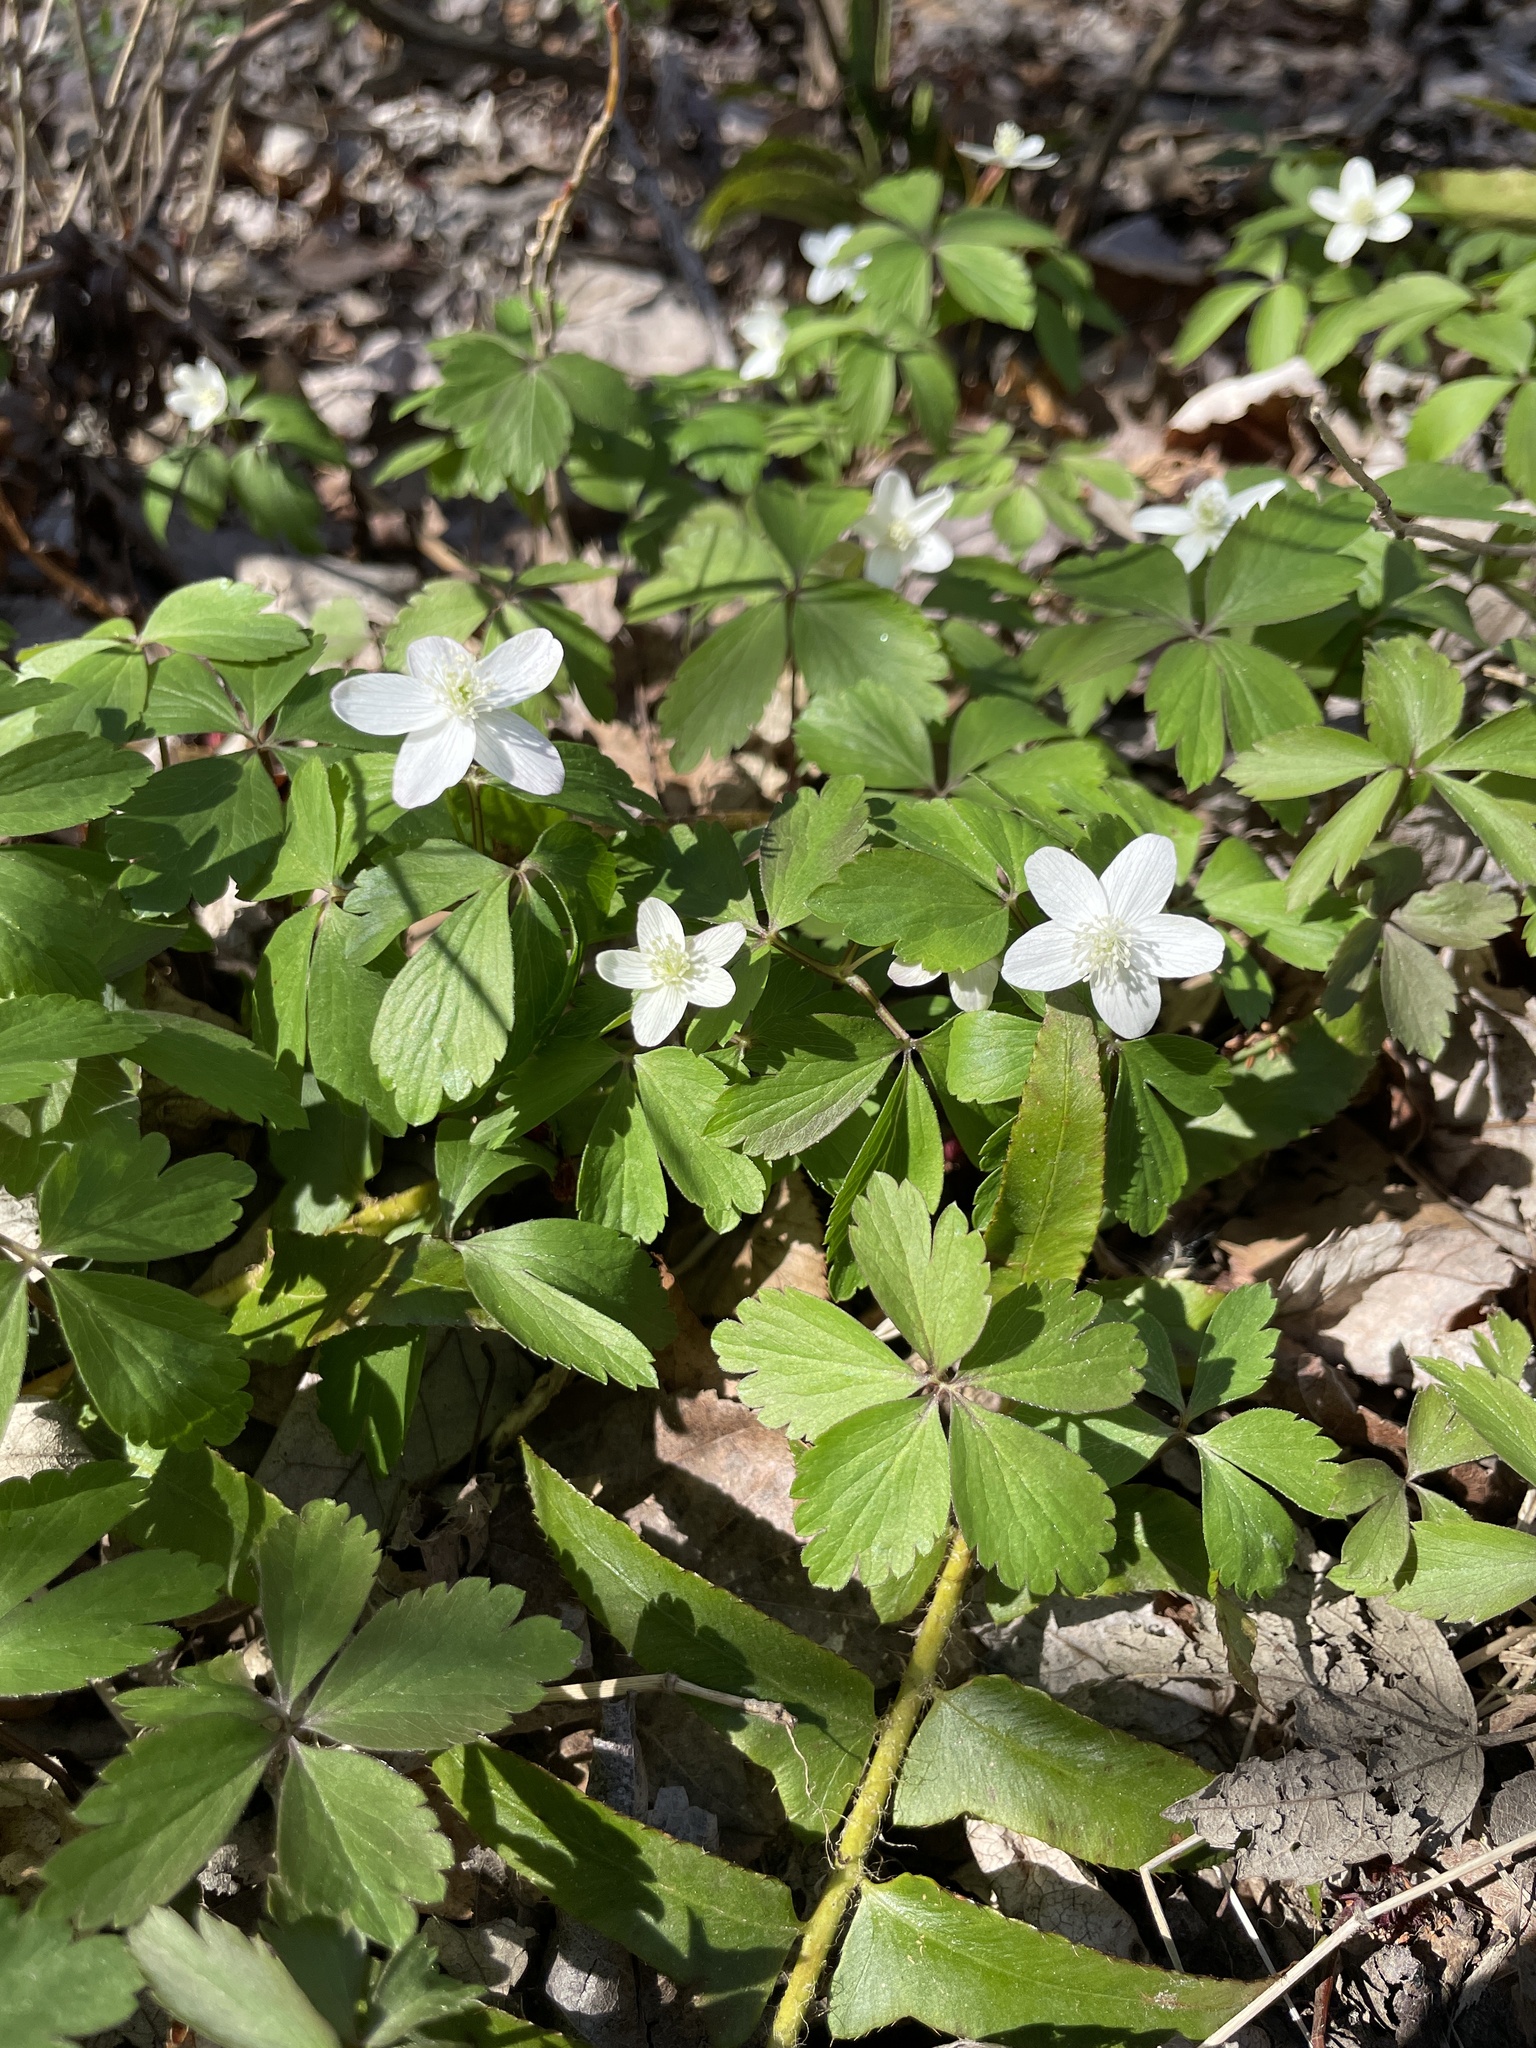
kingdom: Plantae
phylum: Tracheophyta
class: Magnoliopsida
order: Ranunculales
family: Ranunculaceae
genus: Anemone
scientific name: Anemone quinquefolia
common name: Wood anemone
